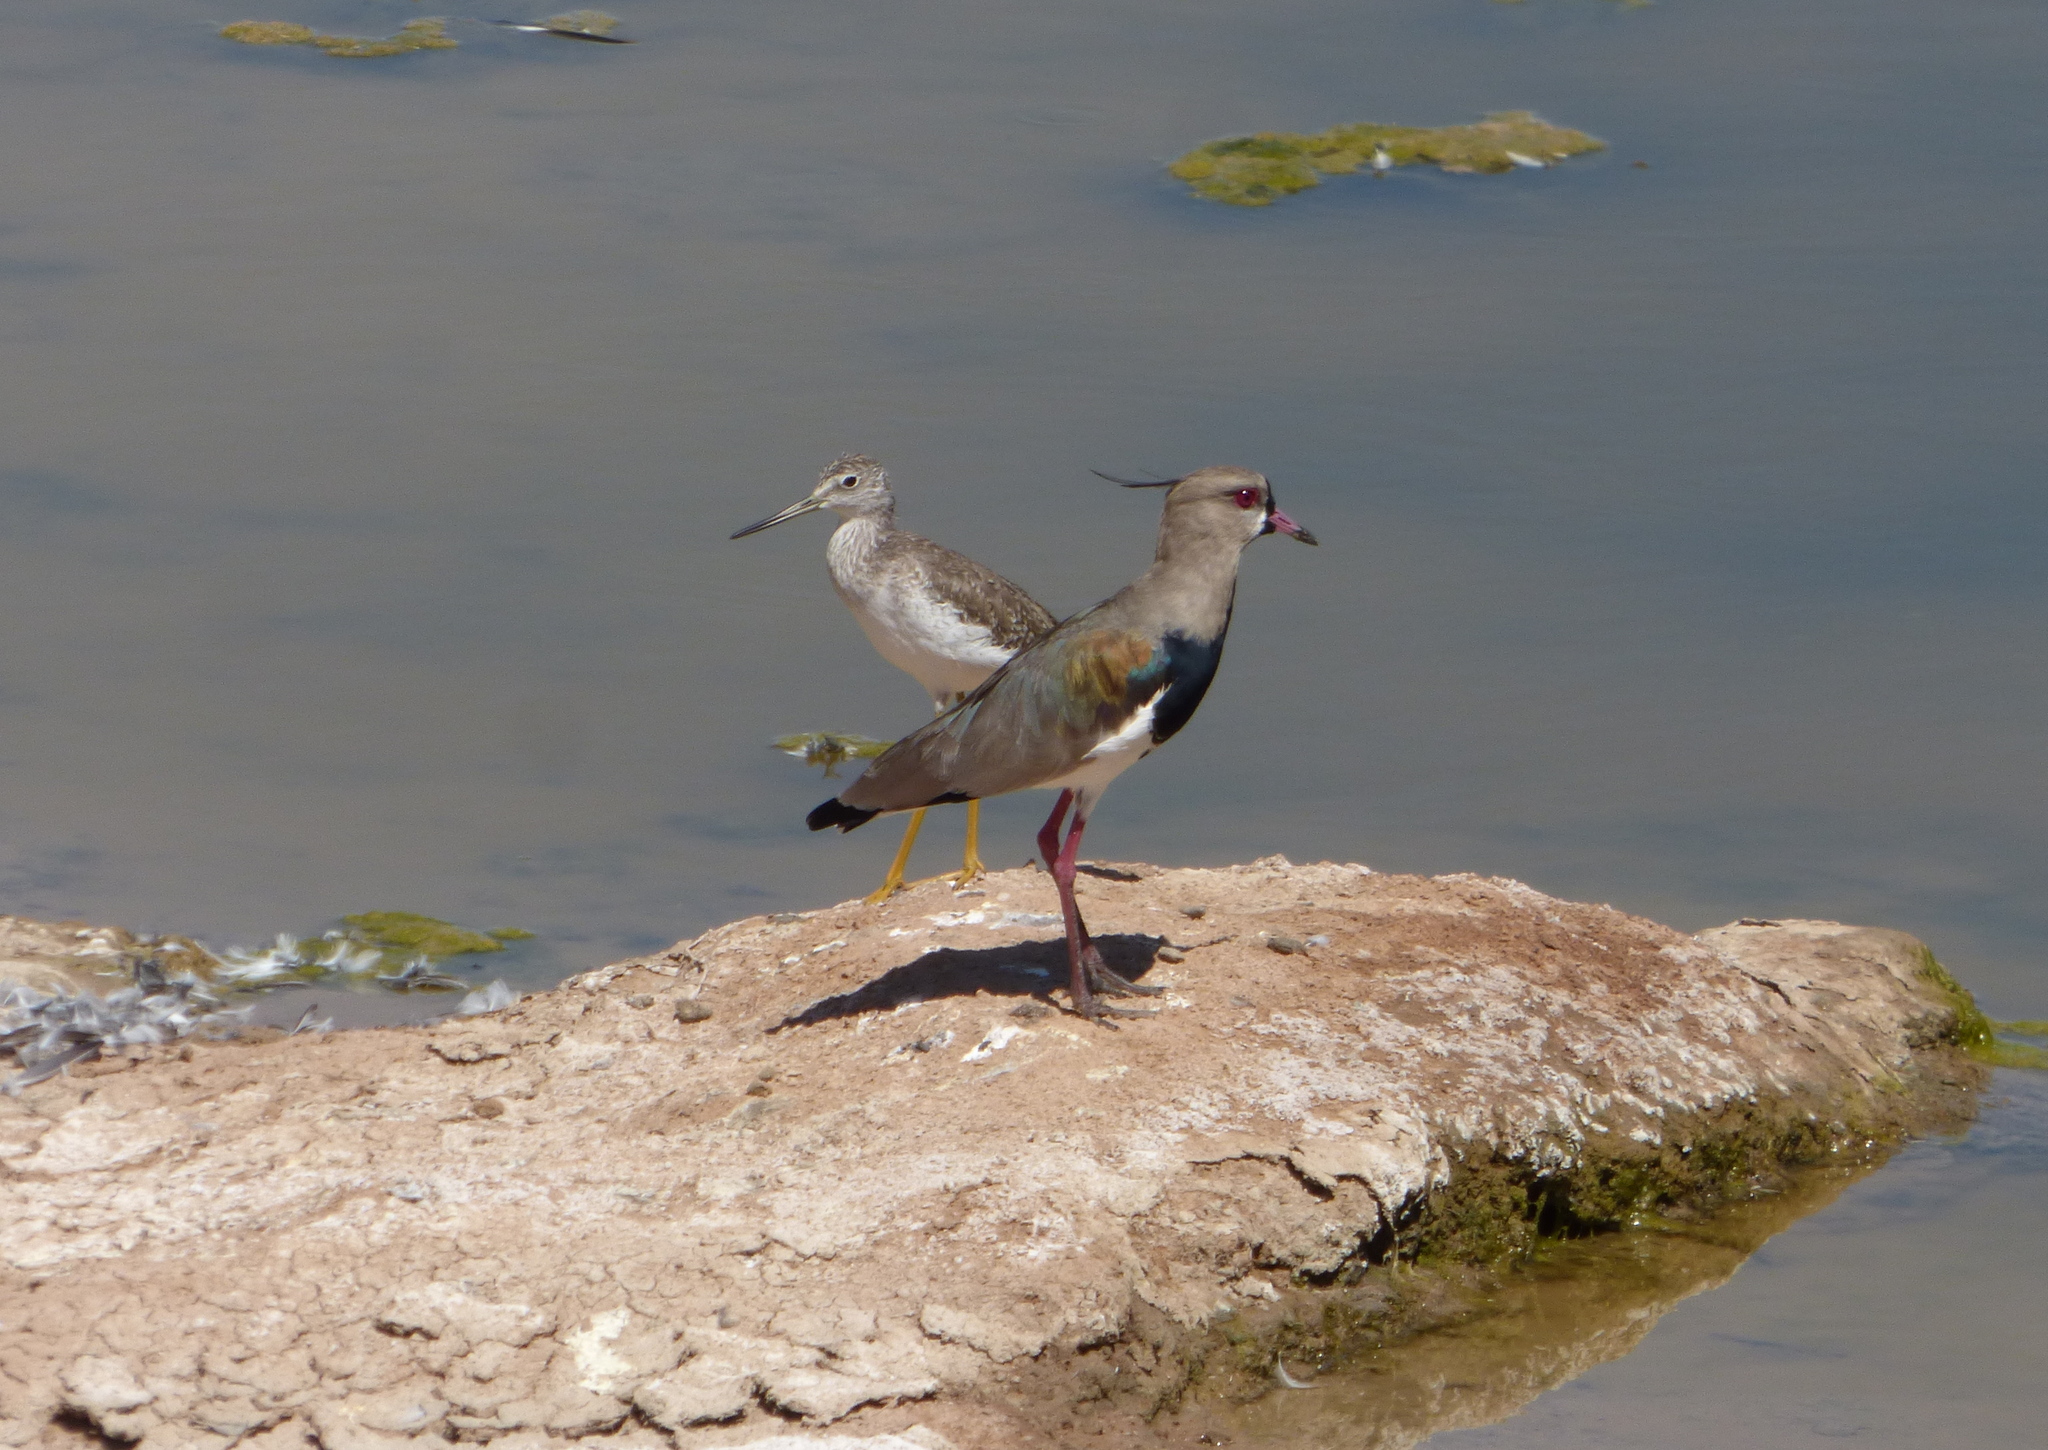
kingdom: Animalia
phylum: Chordata
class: Aves
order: Charadriiformes
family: Charadriidae
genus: Vanellus
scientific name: Vanellus chilensis
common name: Southern lapwing
